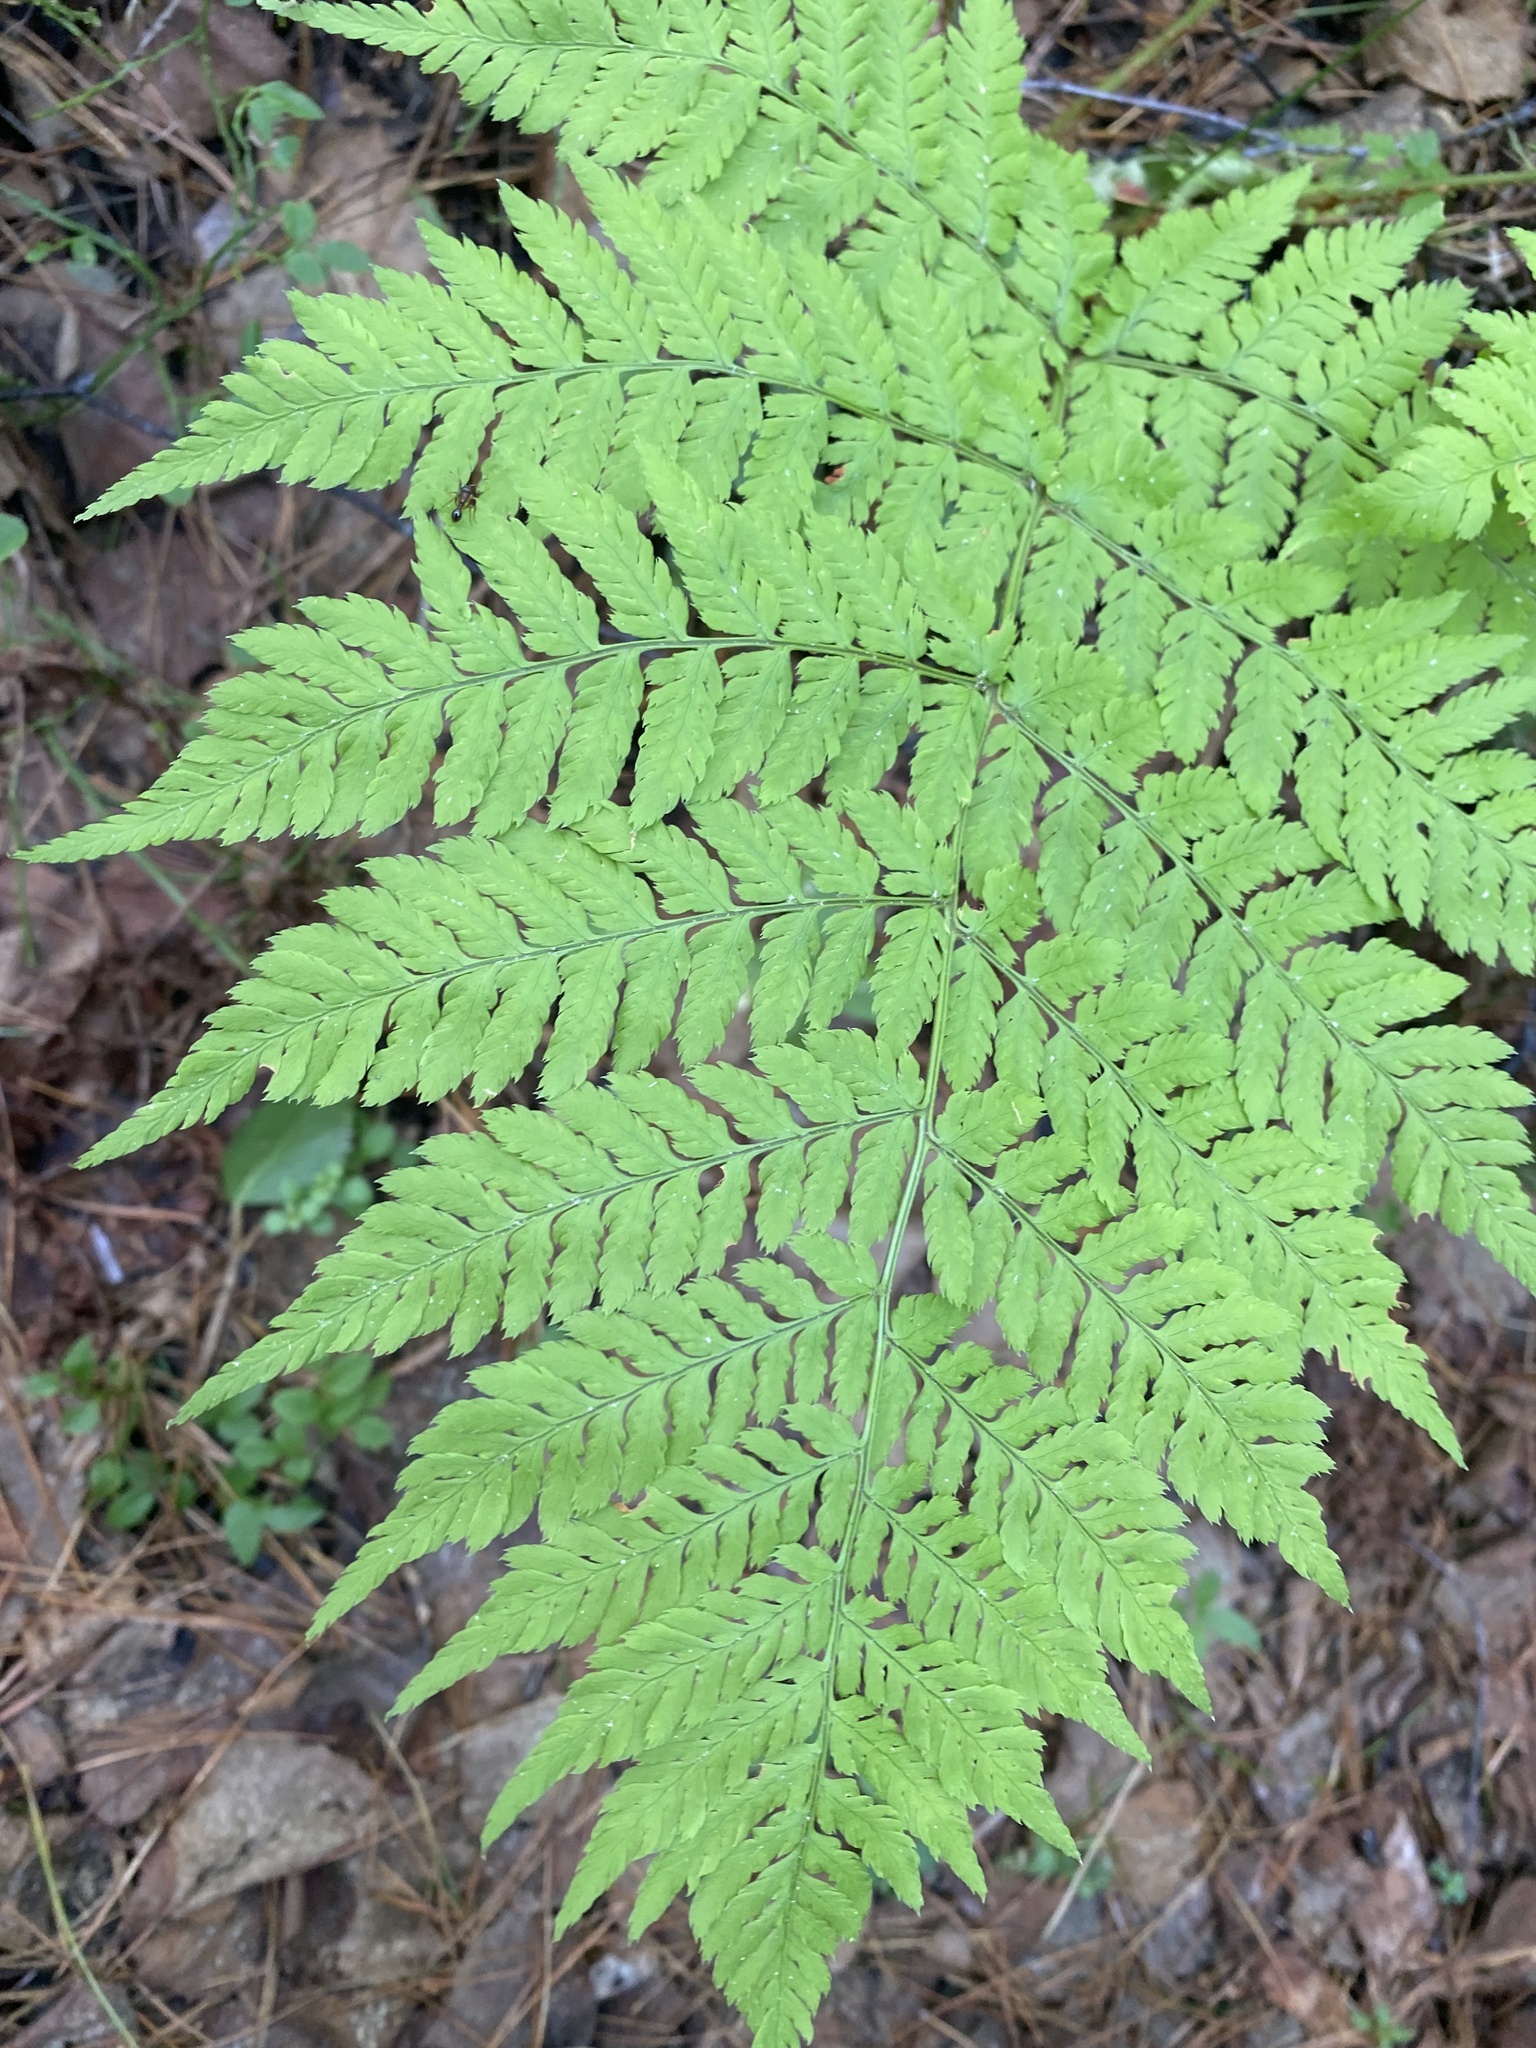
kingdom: Plantae
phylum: Tracheophyta
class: Polypodiopsida
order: Polypodiales
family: Dryopteridaceae
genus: Dryopteris
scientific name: Dryopteris expansa
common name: Northern buckler fern
